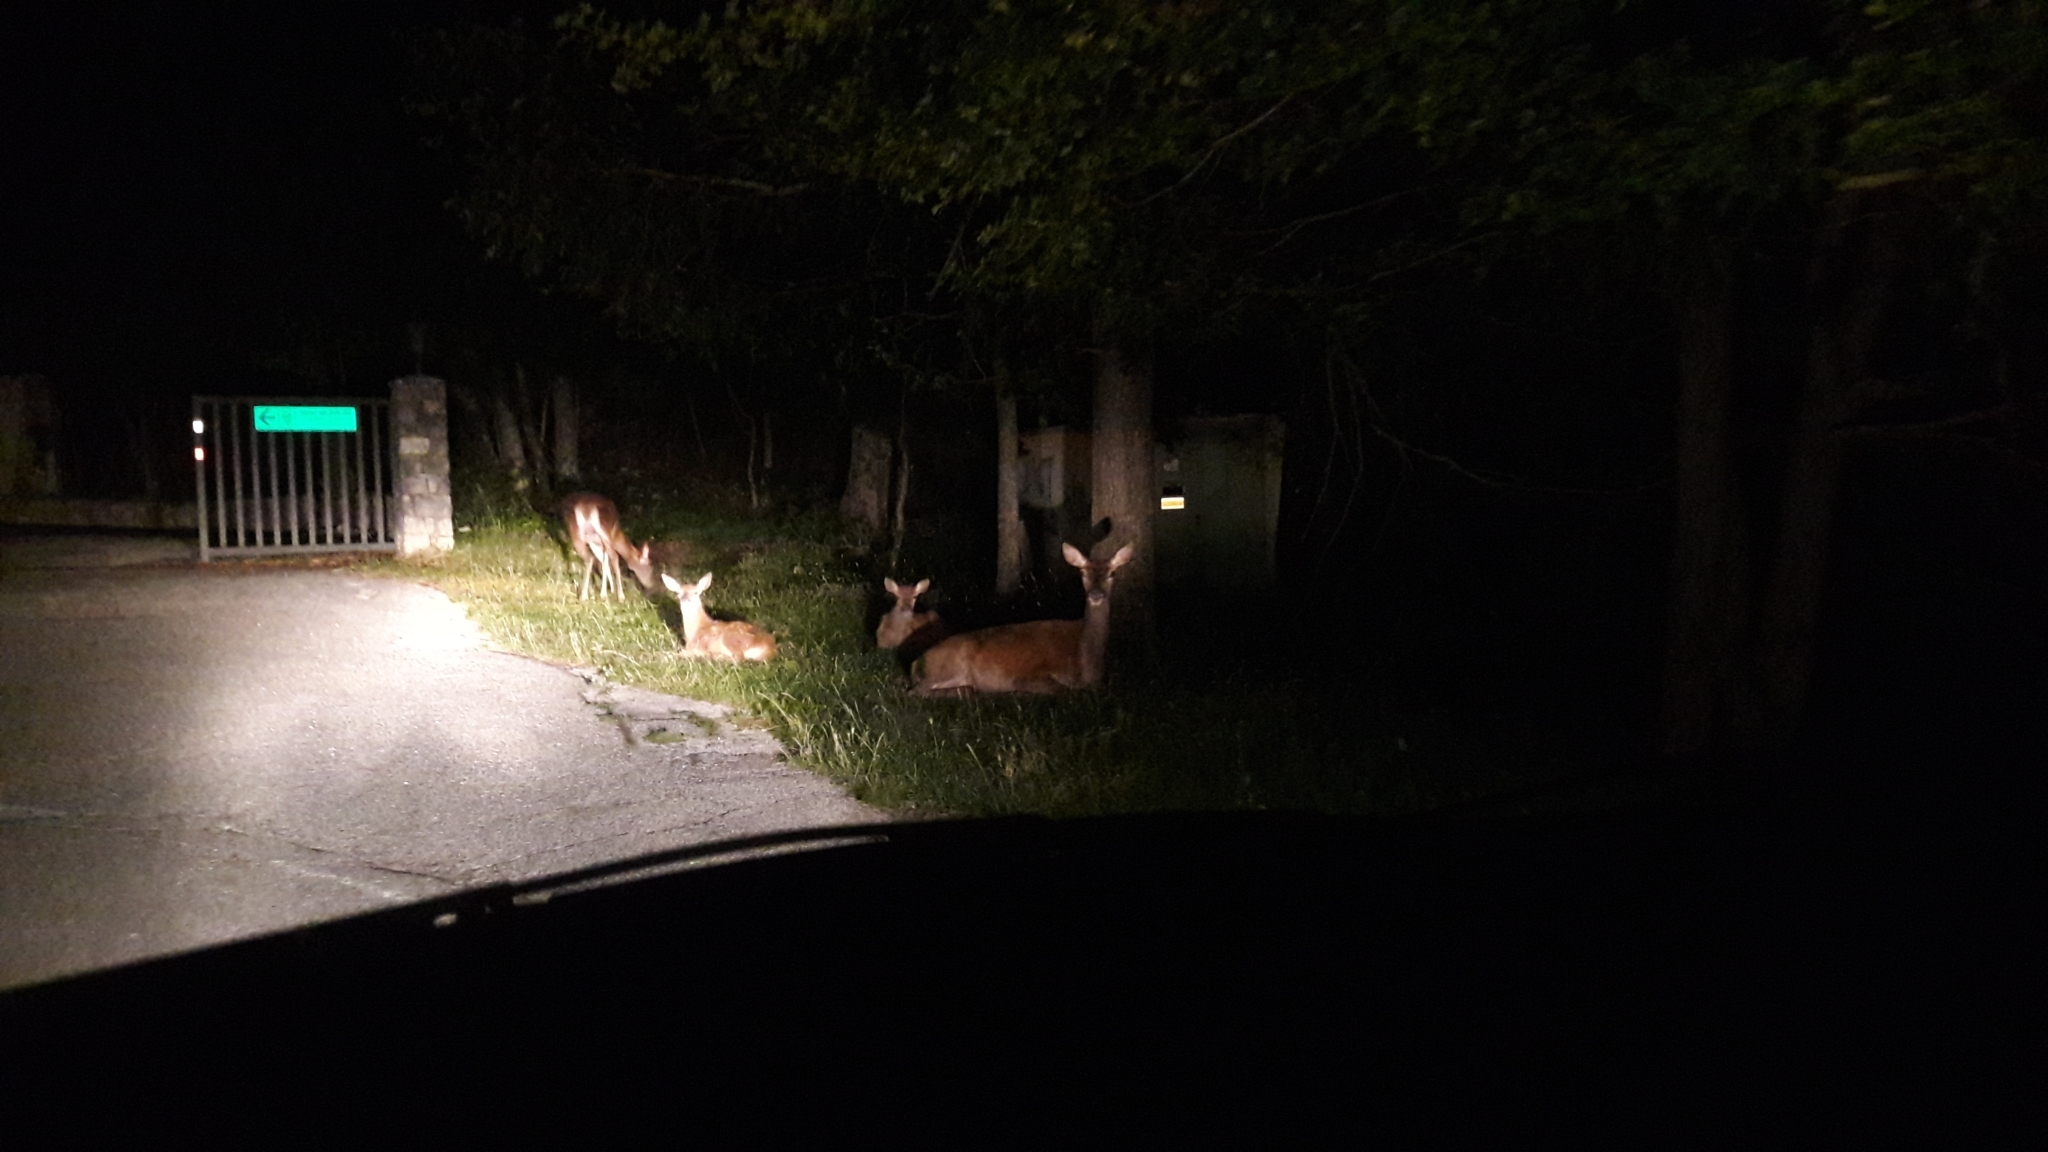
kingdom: Animalia
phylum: Chordata
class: Mammalia
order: Artiodactyla
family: Cervidae
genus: Cervus
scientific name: Cervus elaphus
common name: Red deer
